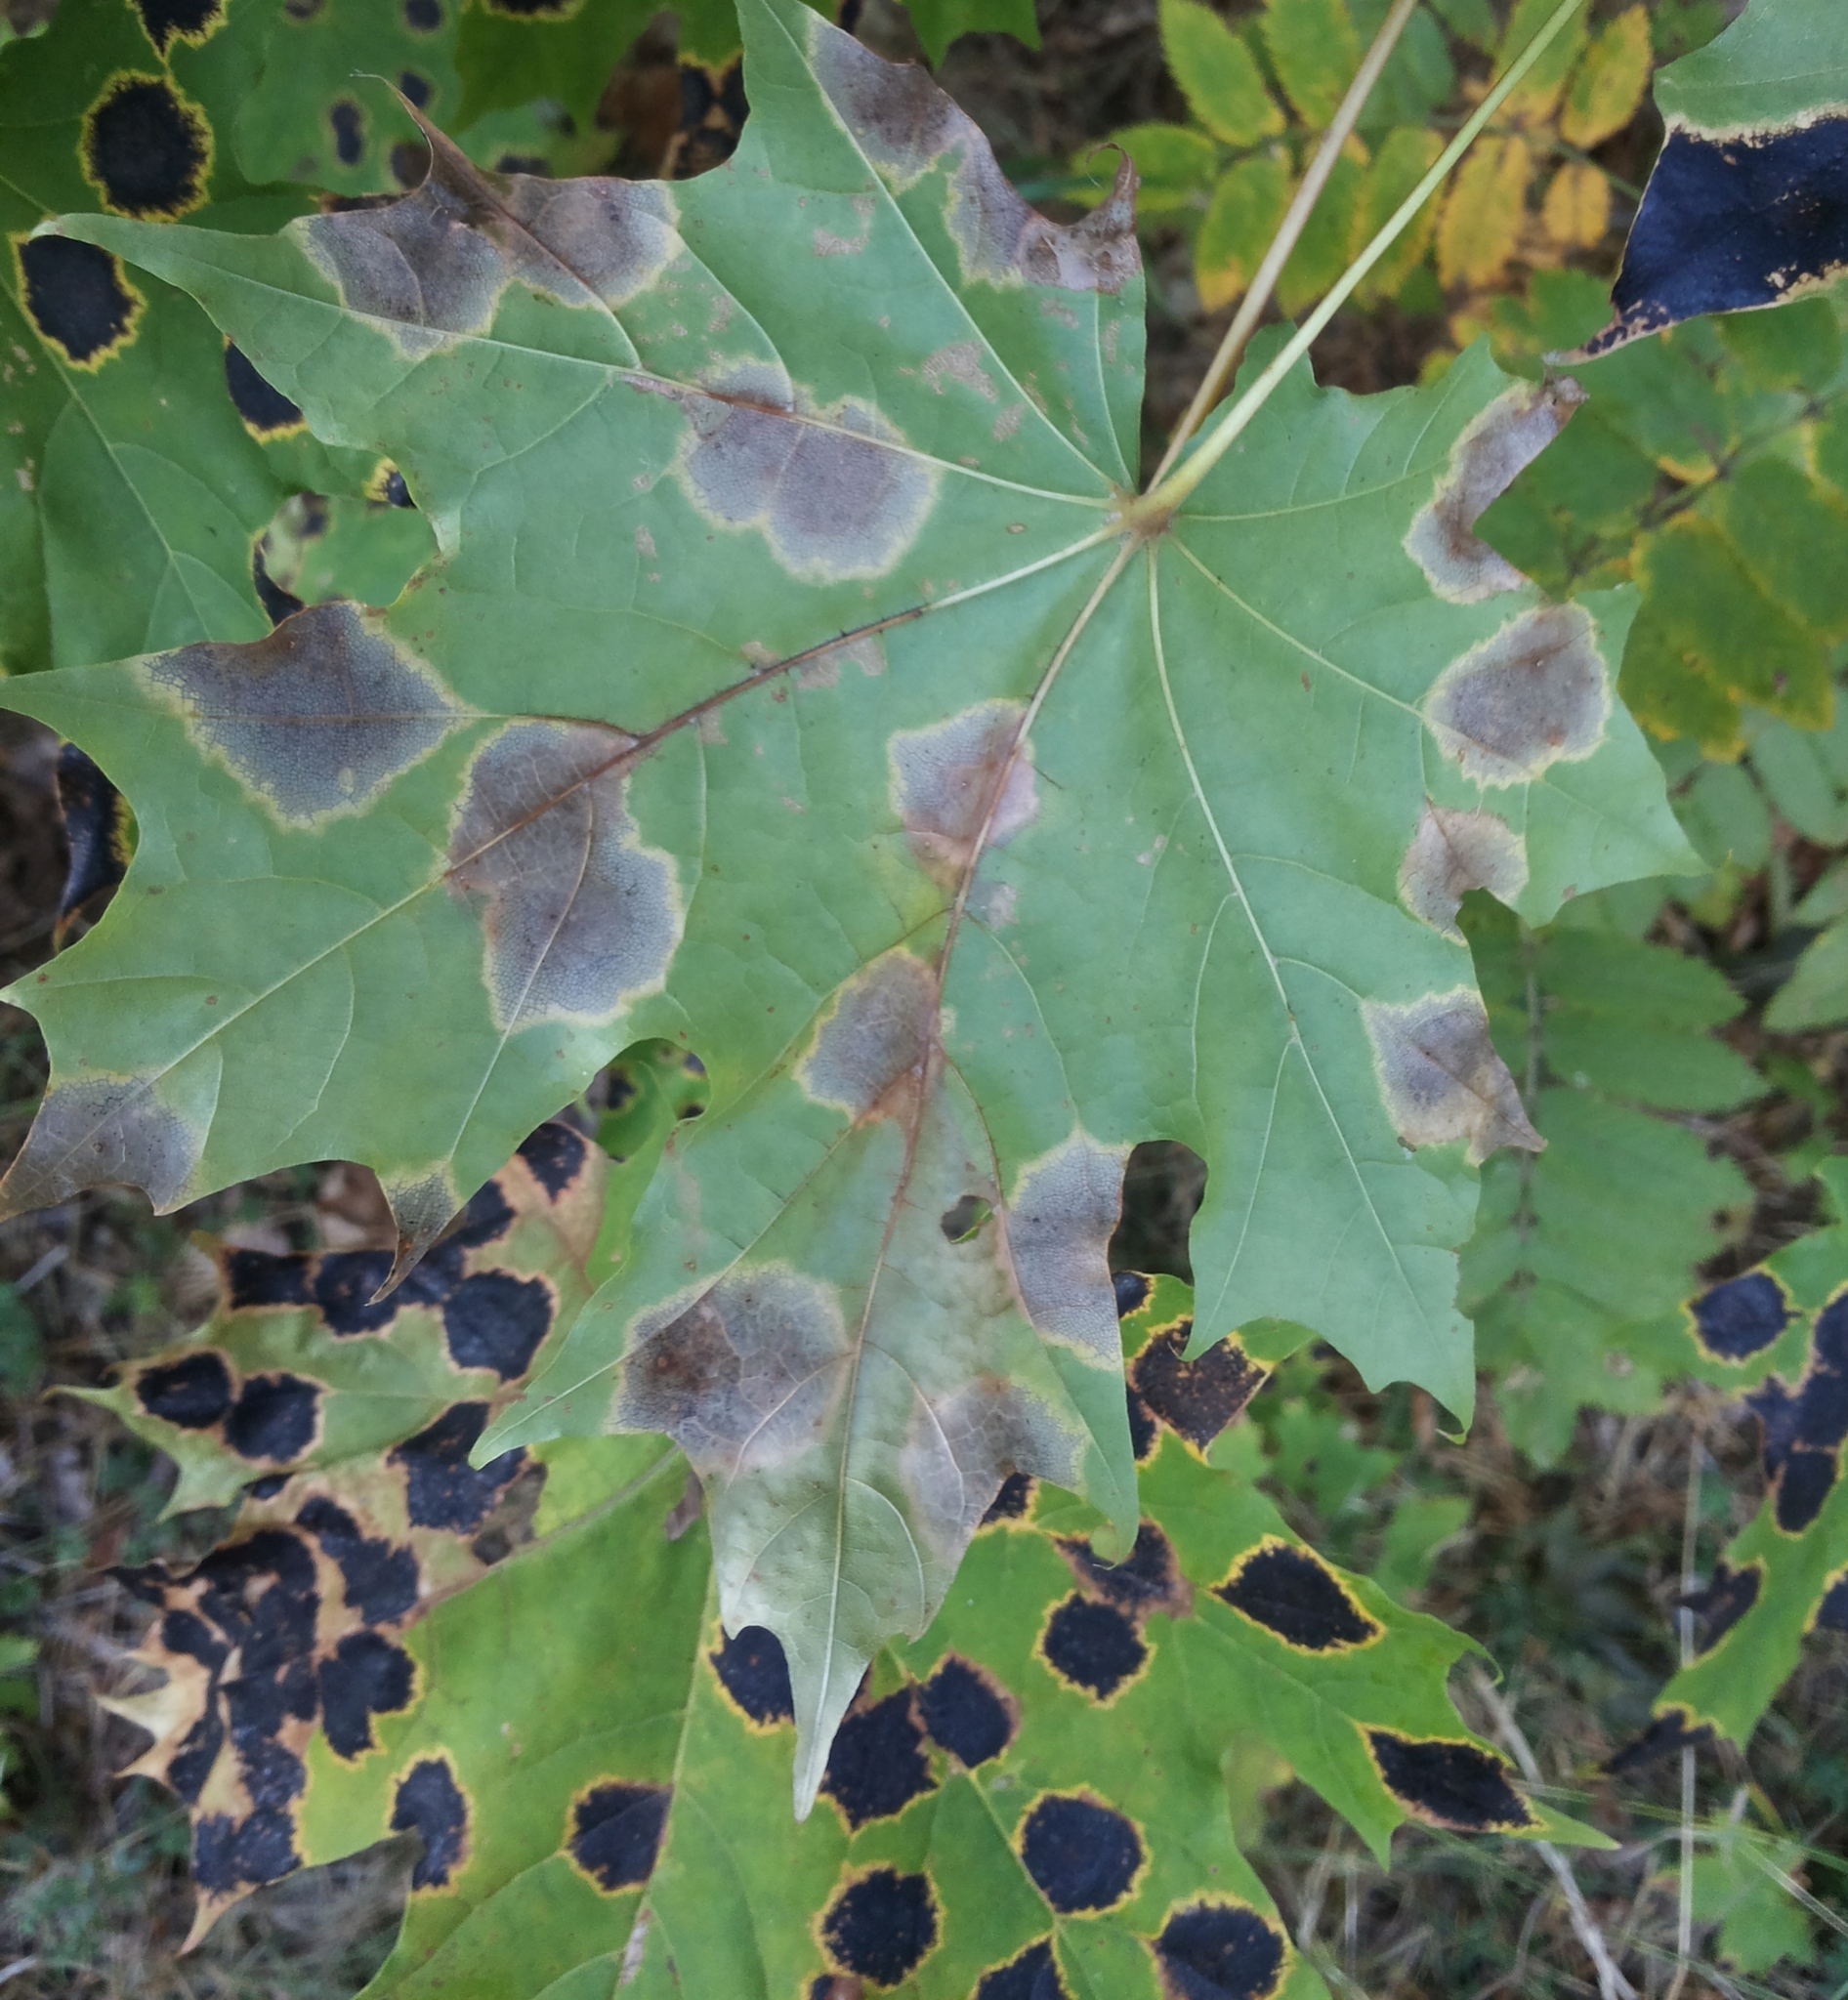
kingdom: Fungi
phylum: Ascomycota
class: Leotiomycetes
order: Rhytismatales
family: Rhytismataceae
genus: Rhytisma
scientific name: Rhytisma acerinum
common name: European tar spot
